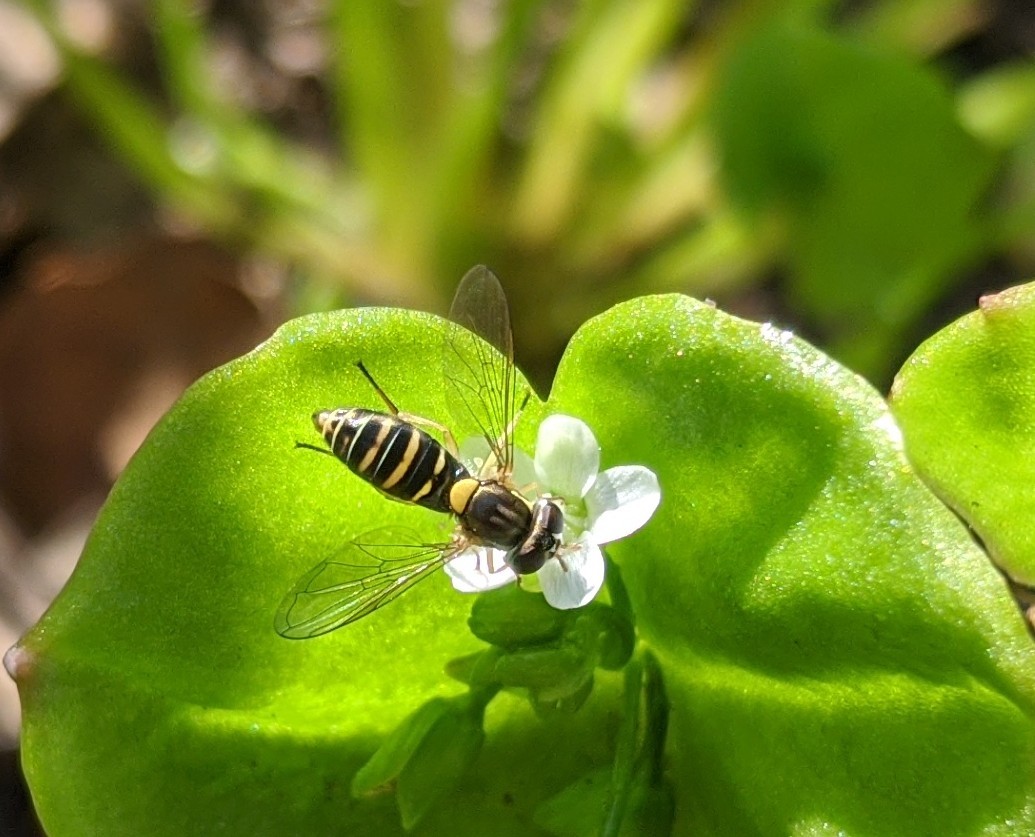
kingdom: Animalia
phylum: Arthropoda
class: Insecta
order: Diptera
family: Syrphidae
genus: Sphaerophoria
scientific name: Sphaerophoria
